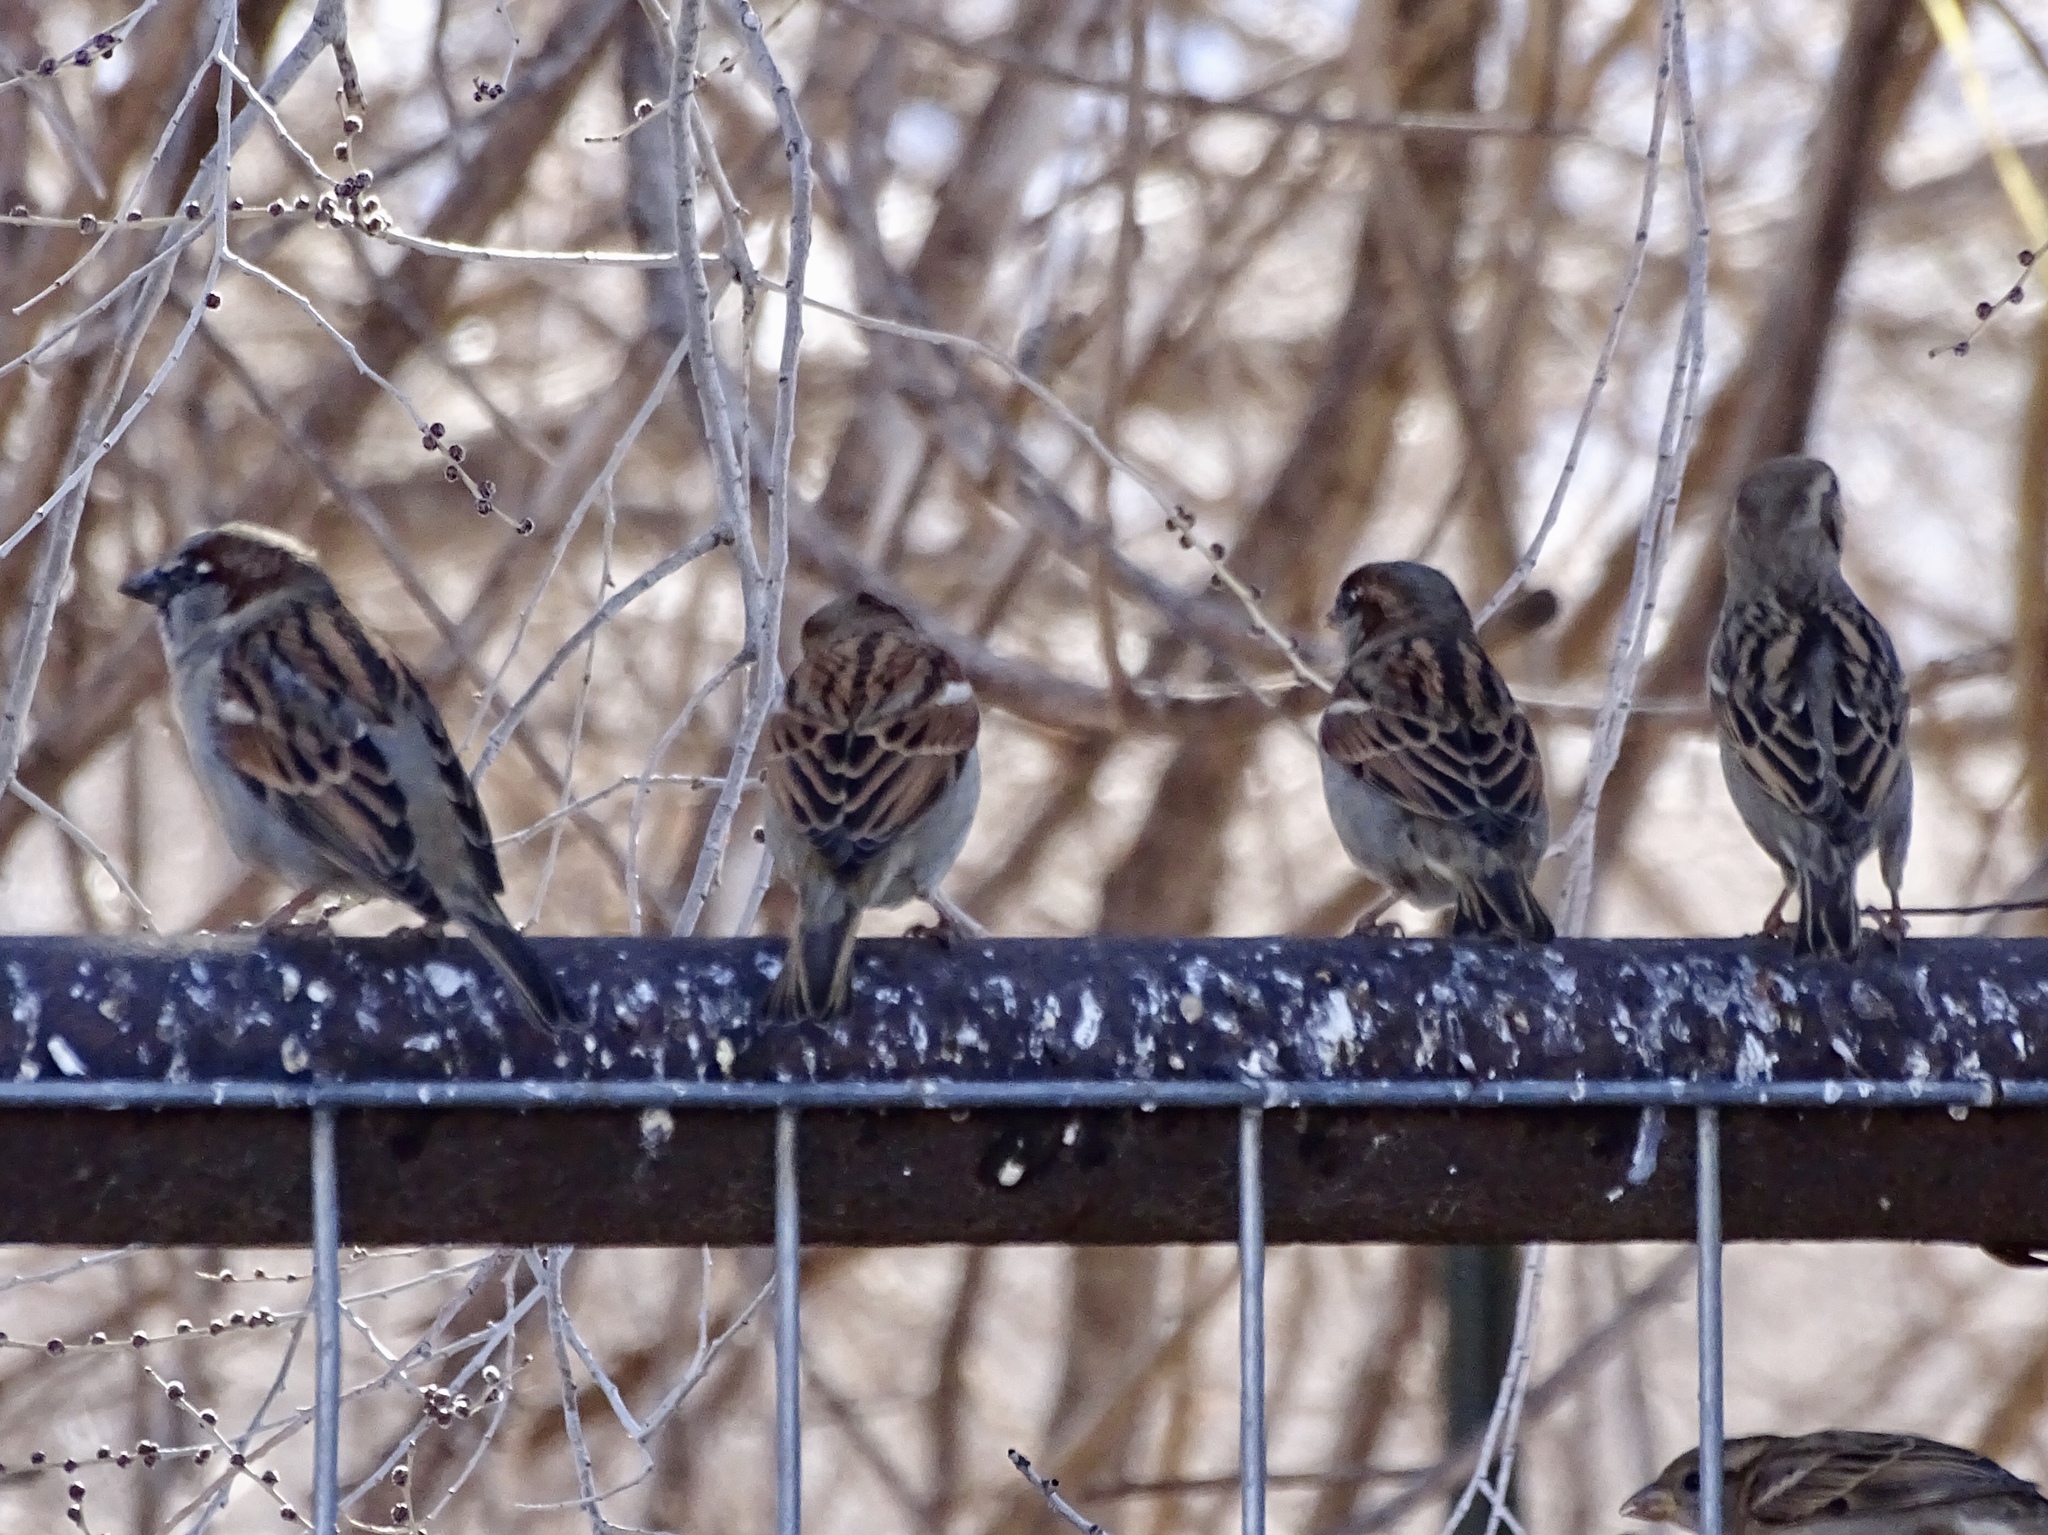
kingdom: Animalia
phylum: Chordata
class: Aves
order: Passeriformes
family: Passeridae
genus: Passer
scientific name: Passer domesticus
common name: House sparrow
